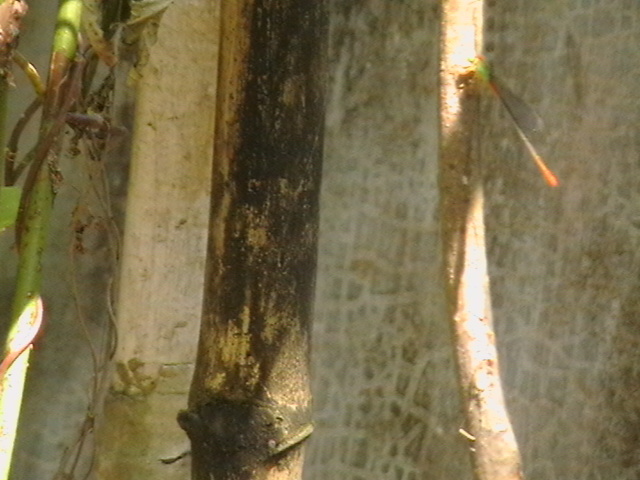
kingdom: Animalia
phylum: Arthropoda
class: Insecta
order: Odonata
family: Coenagrionidae
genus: Ceriagrion
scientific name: Ceriagrion cerinorubellum
